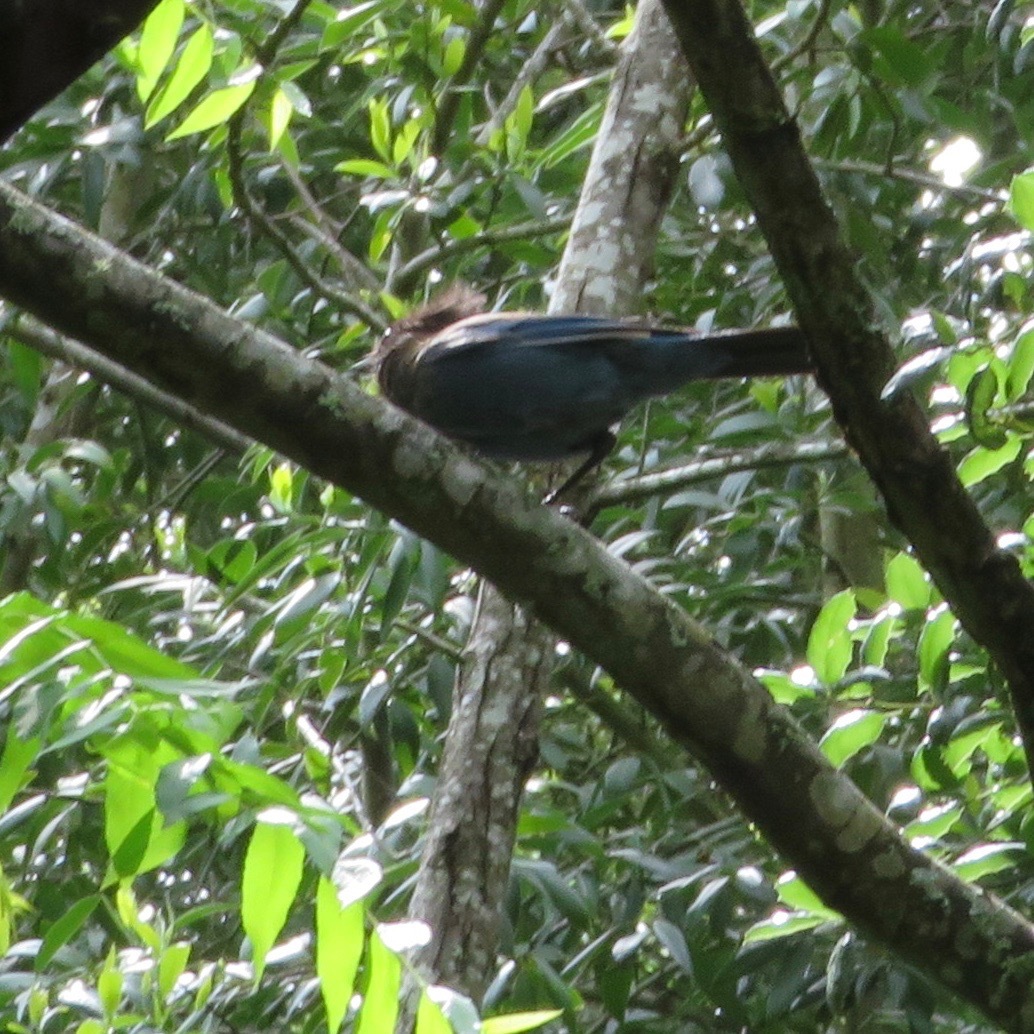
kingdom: Animalia
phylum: Chordata
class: Aves
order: Passeriformes
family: Corvidae
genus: Cyanocitta
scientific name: Cyanocitta stelleri
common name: Steller's jay
